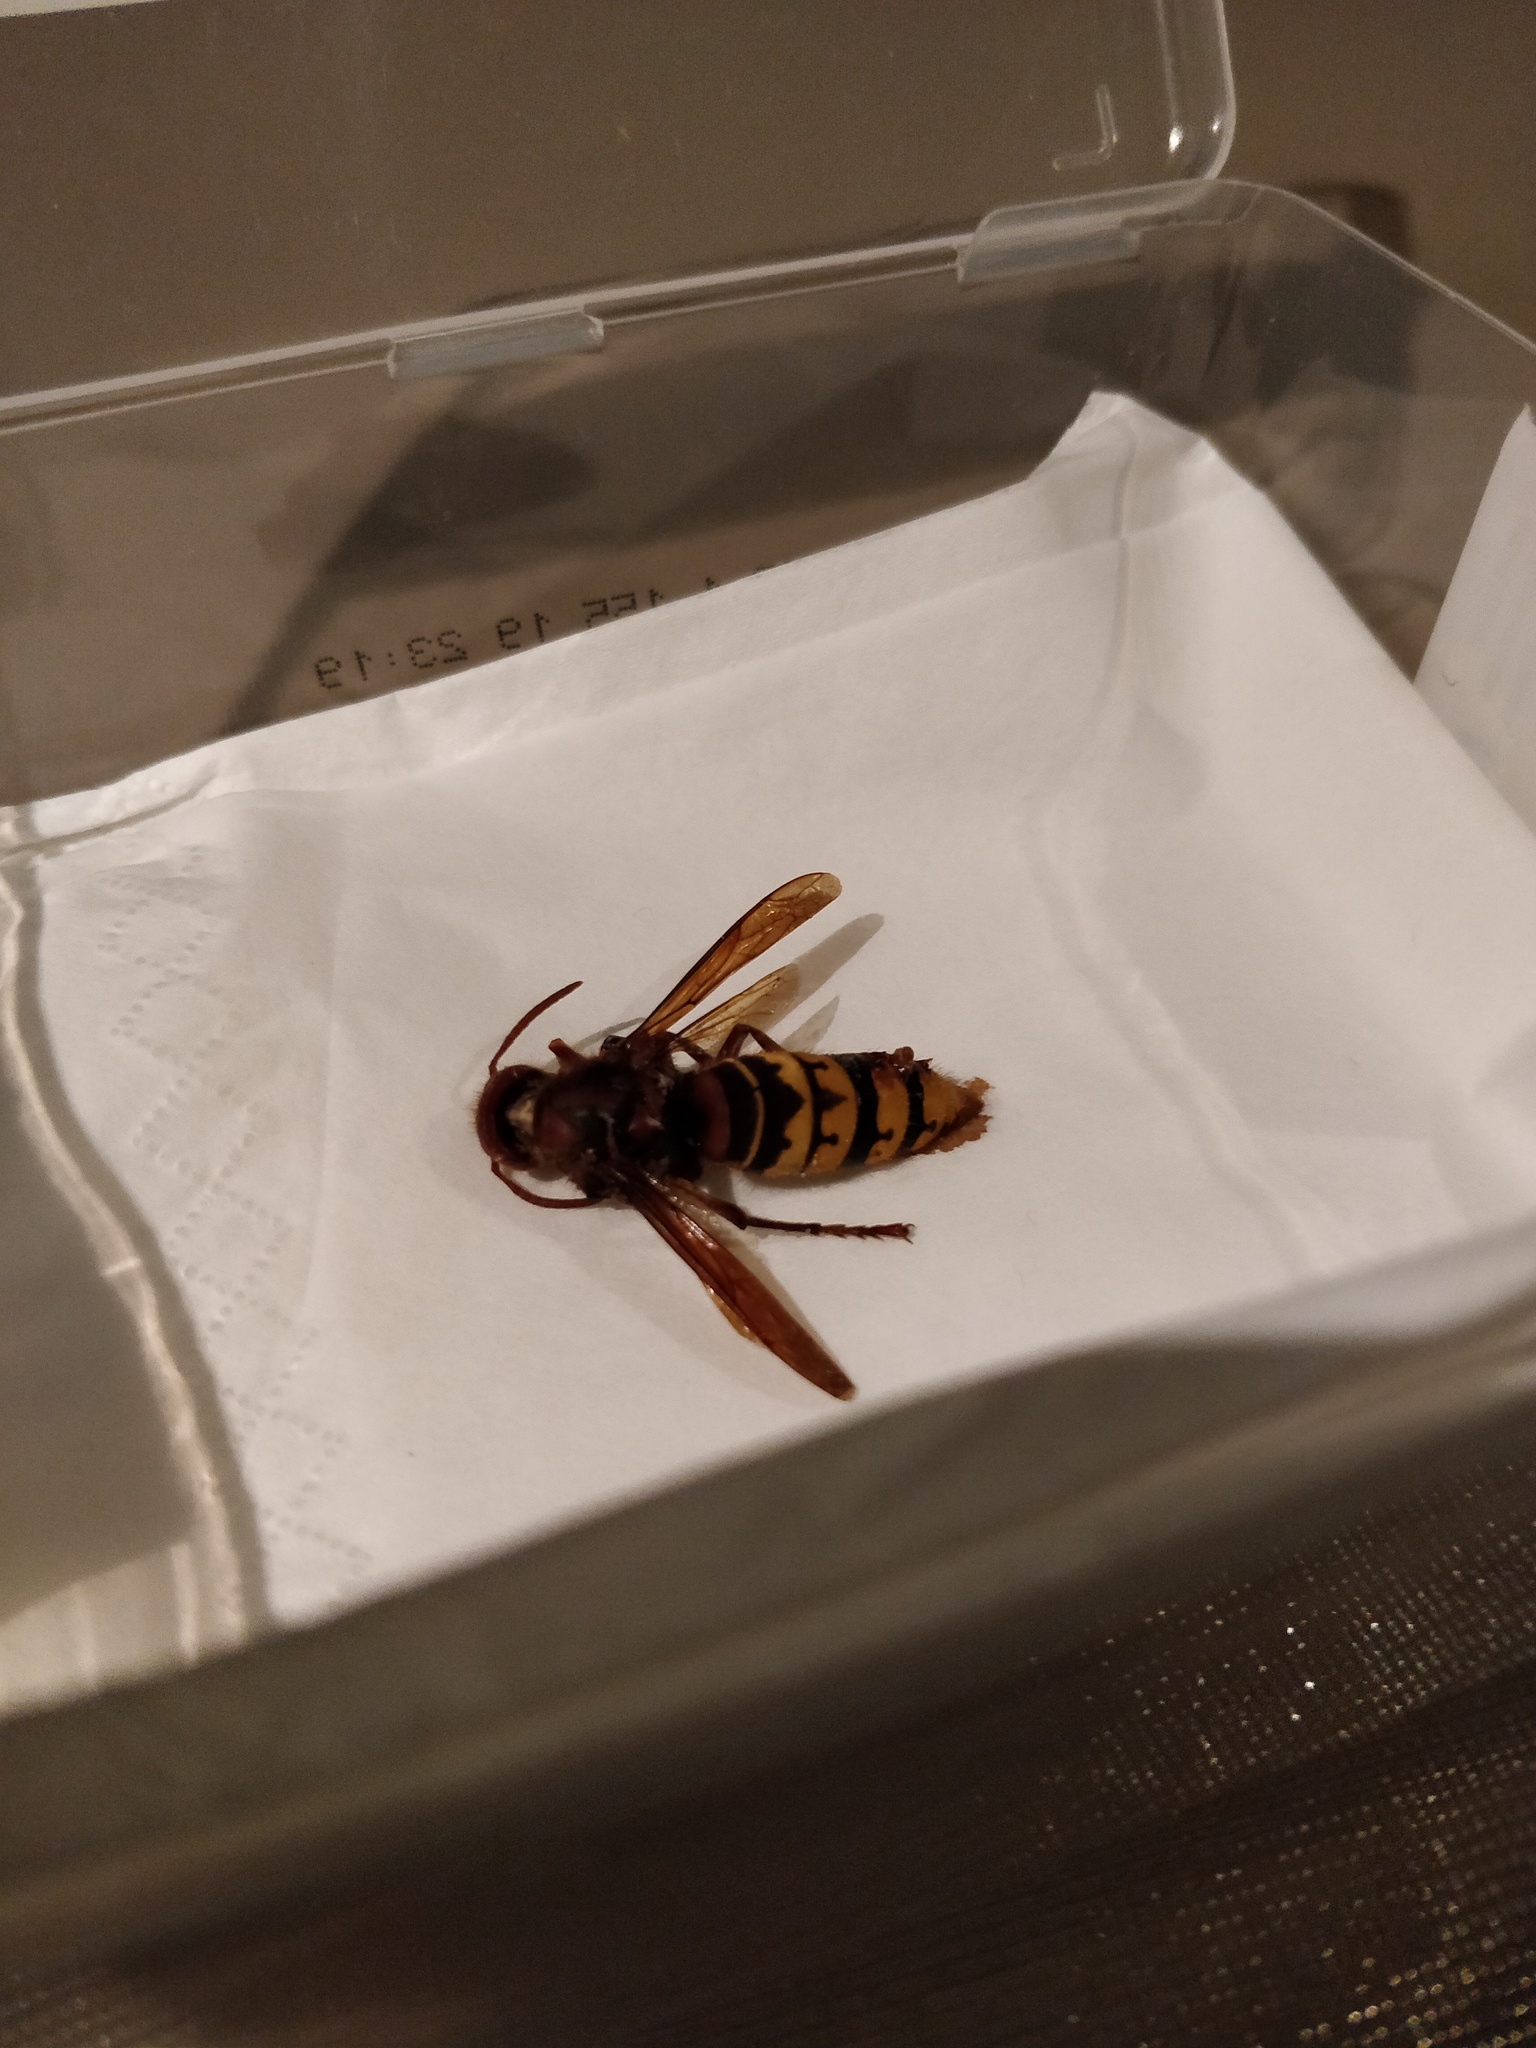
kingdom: Animalia
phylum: Arthropoda
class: Insecta
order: Hymenoptera
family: Vespidae
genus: Vespa
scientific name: Vespa crabro
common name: Hornet
